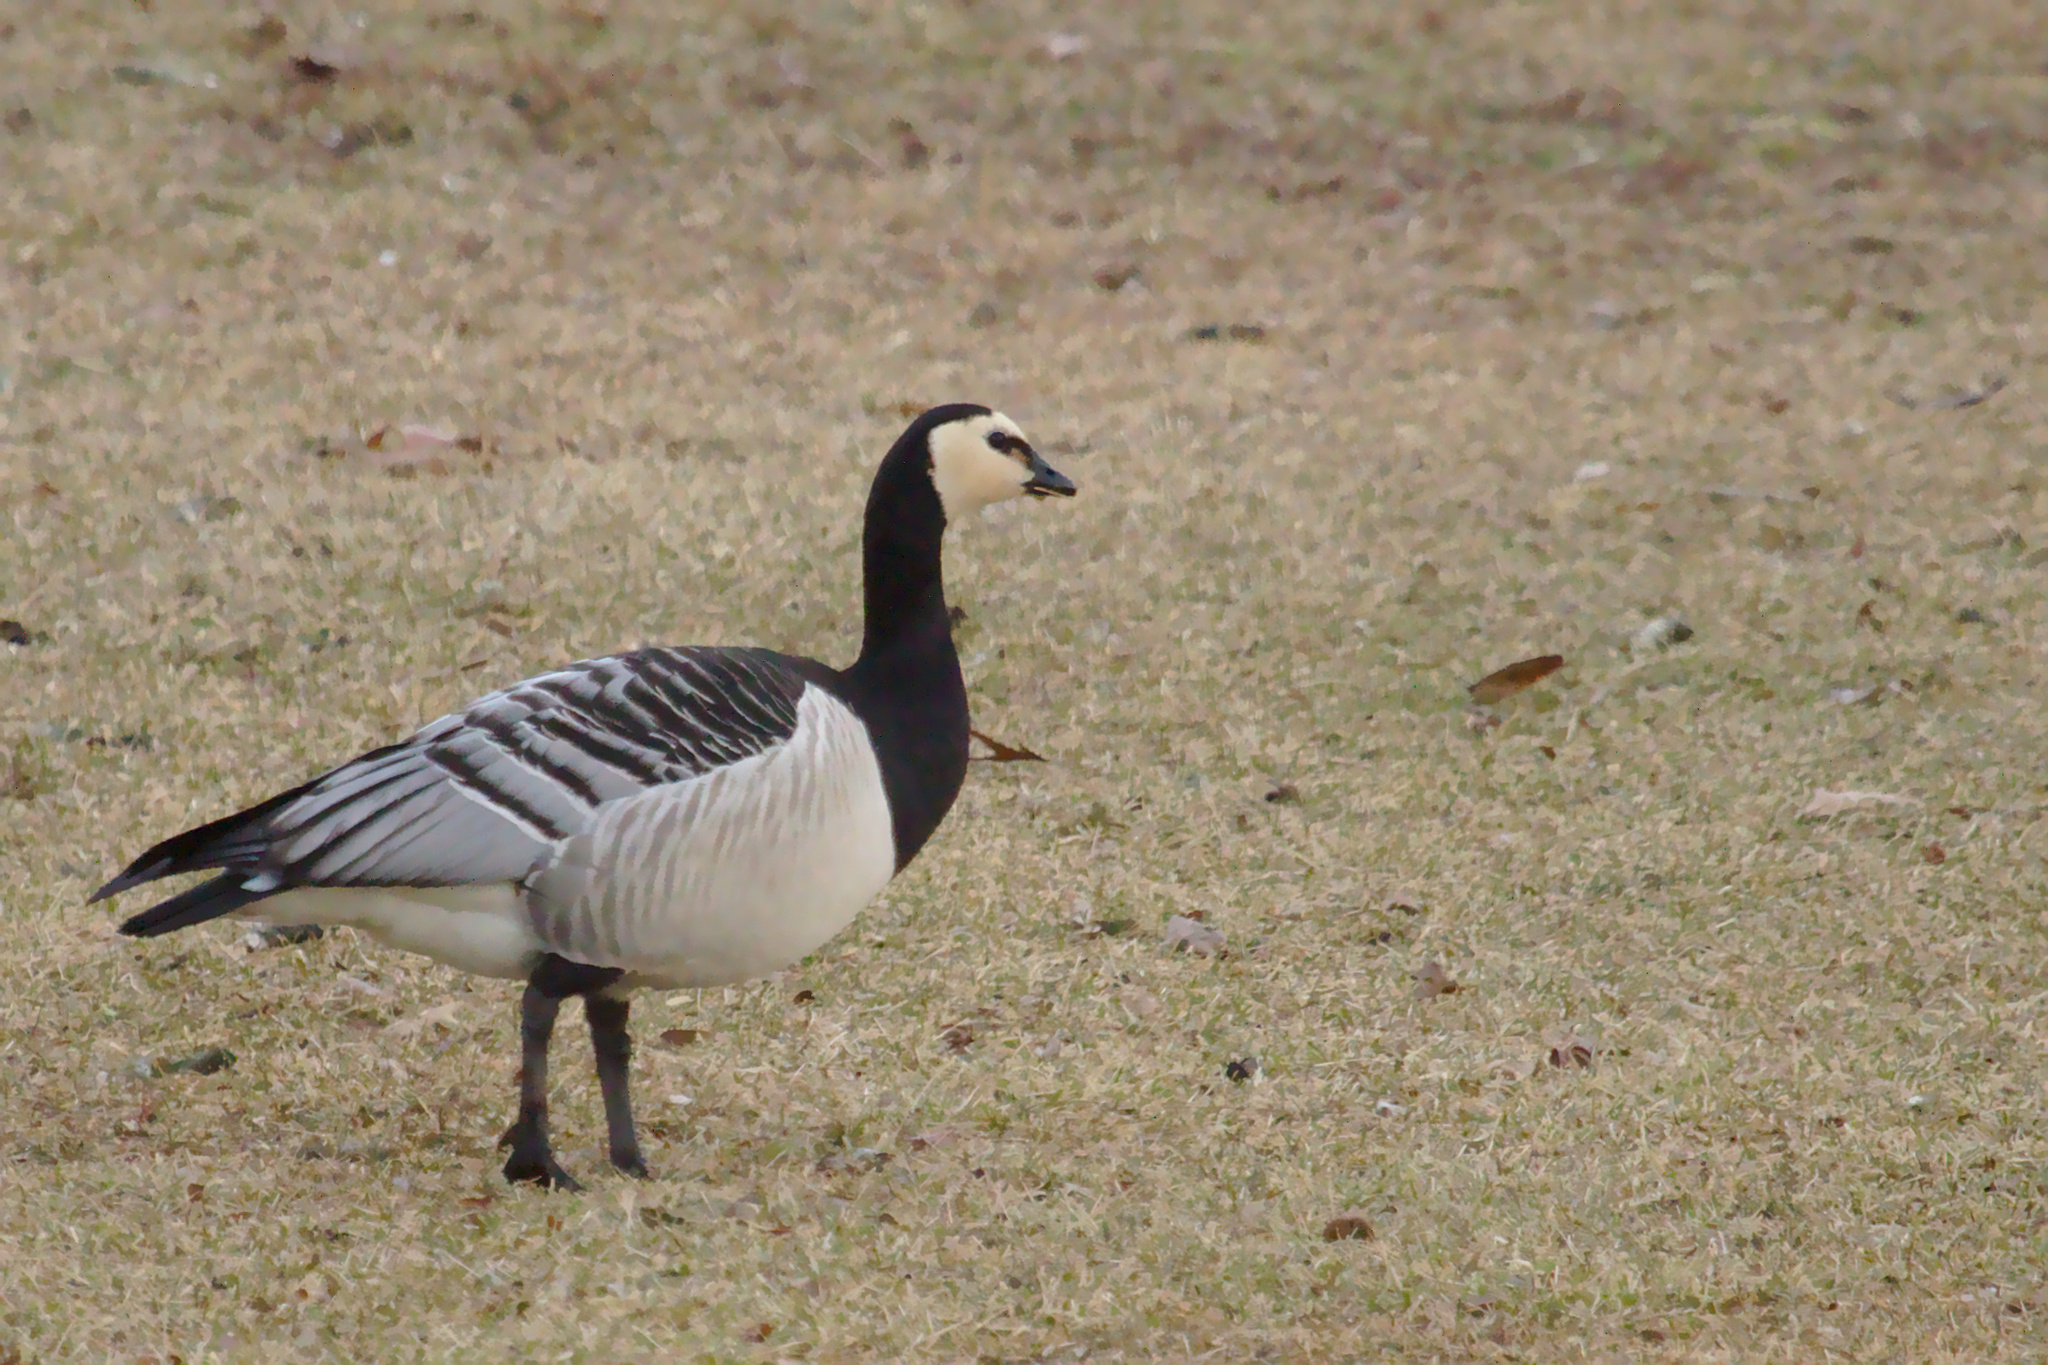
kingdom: Animalia
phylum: Chordata
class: Aves
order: Anseriformes
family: Anatidae
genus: Branta
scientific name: Branta leucopsis
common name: Barnacle goose
